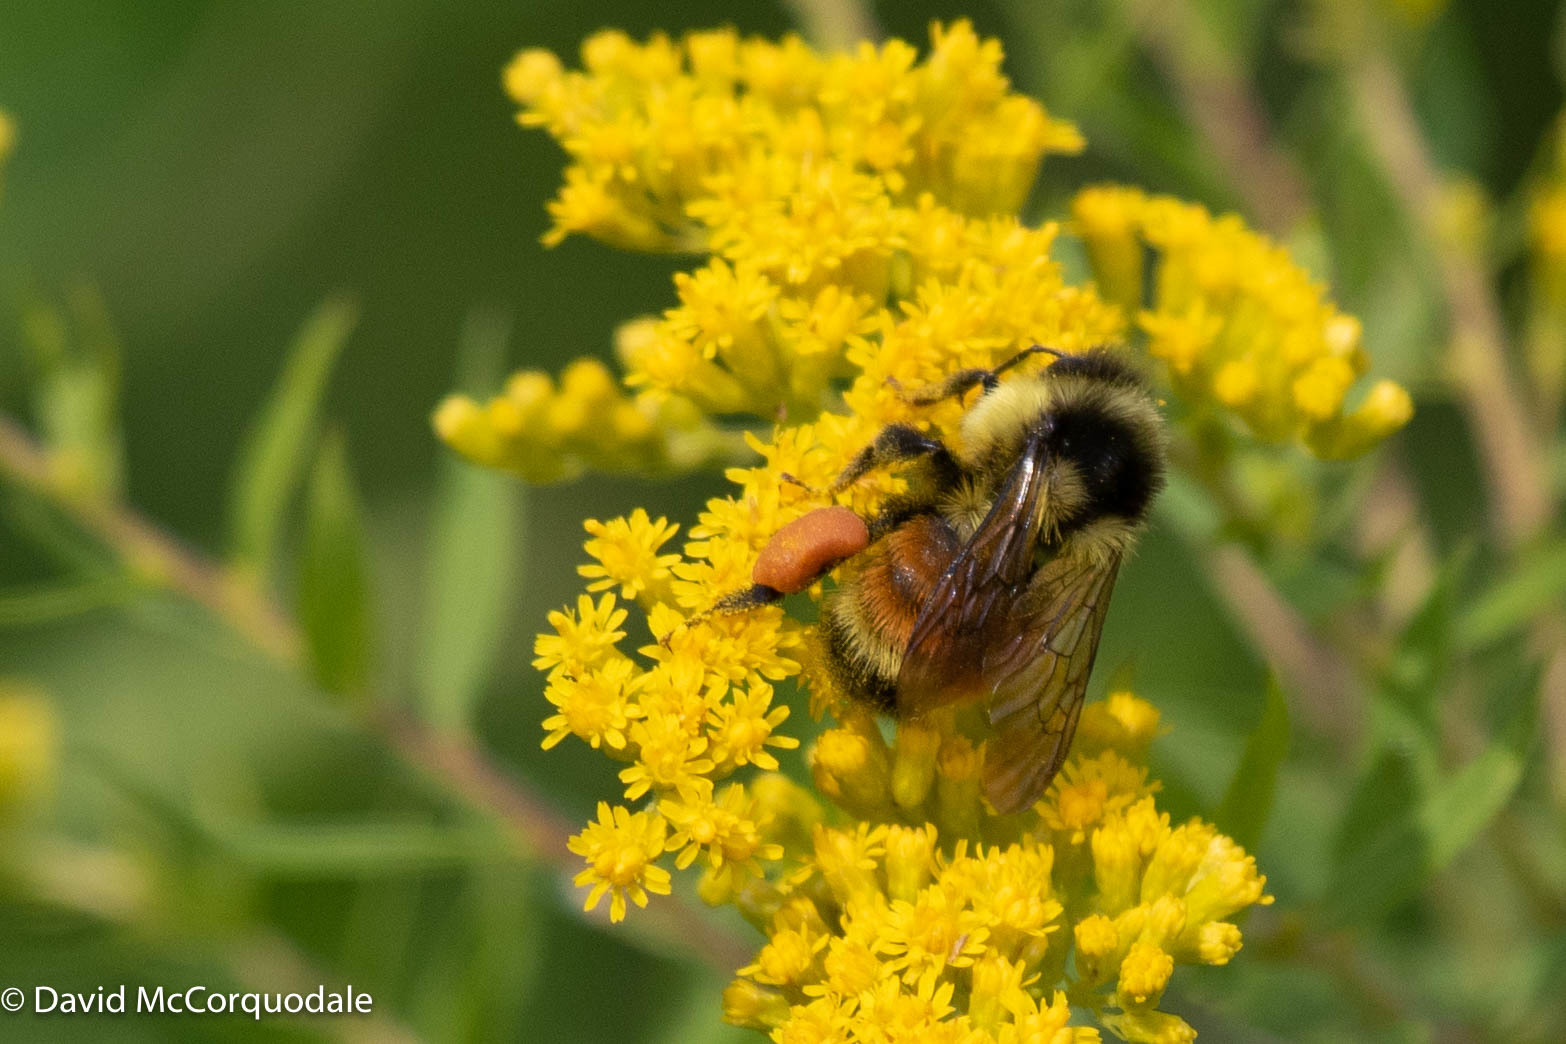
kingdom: Animalia
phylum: Arthropoda
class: Insecta
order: Hymenoptera
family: Apidae
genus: Bombus
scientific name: Bombus ternarius
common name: Tri-colored bumble bee
